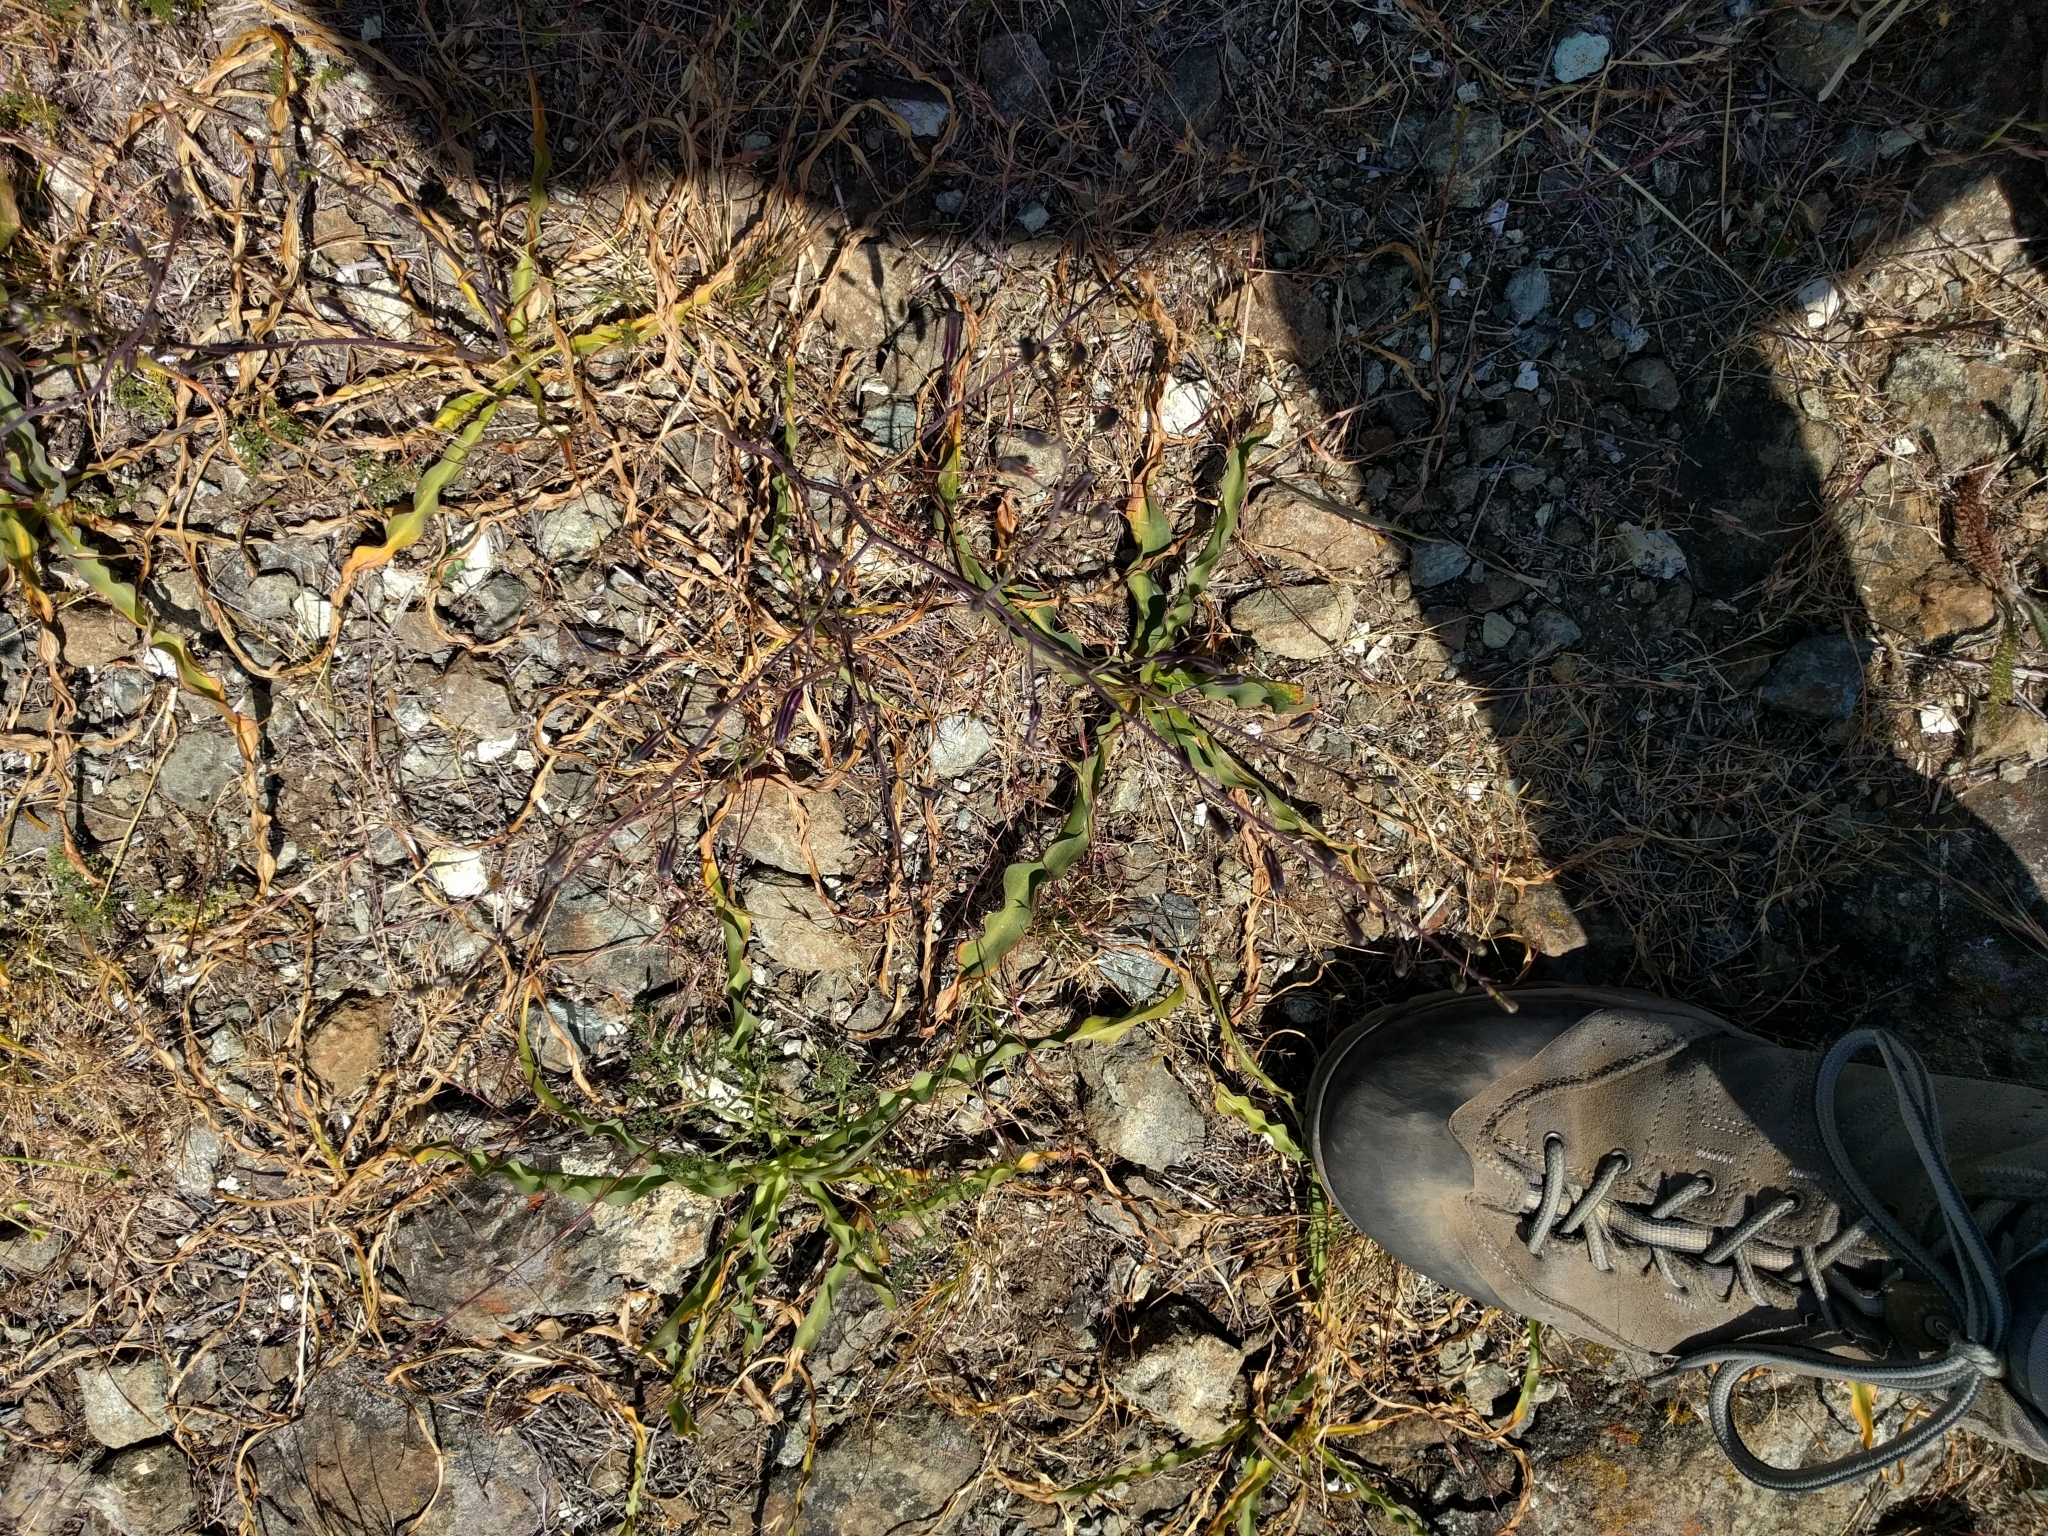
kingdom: Plantae
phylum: Tracheophyta
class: Liliopsida
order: Asparagales
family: Asparagaceae
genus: Chlorogalum
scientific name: Chlorogalum pomeridianum
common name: Amole
